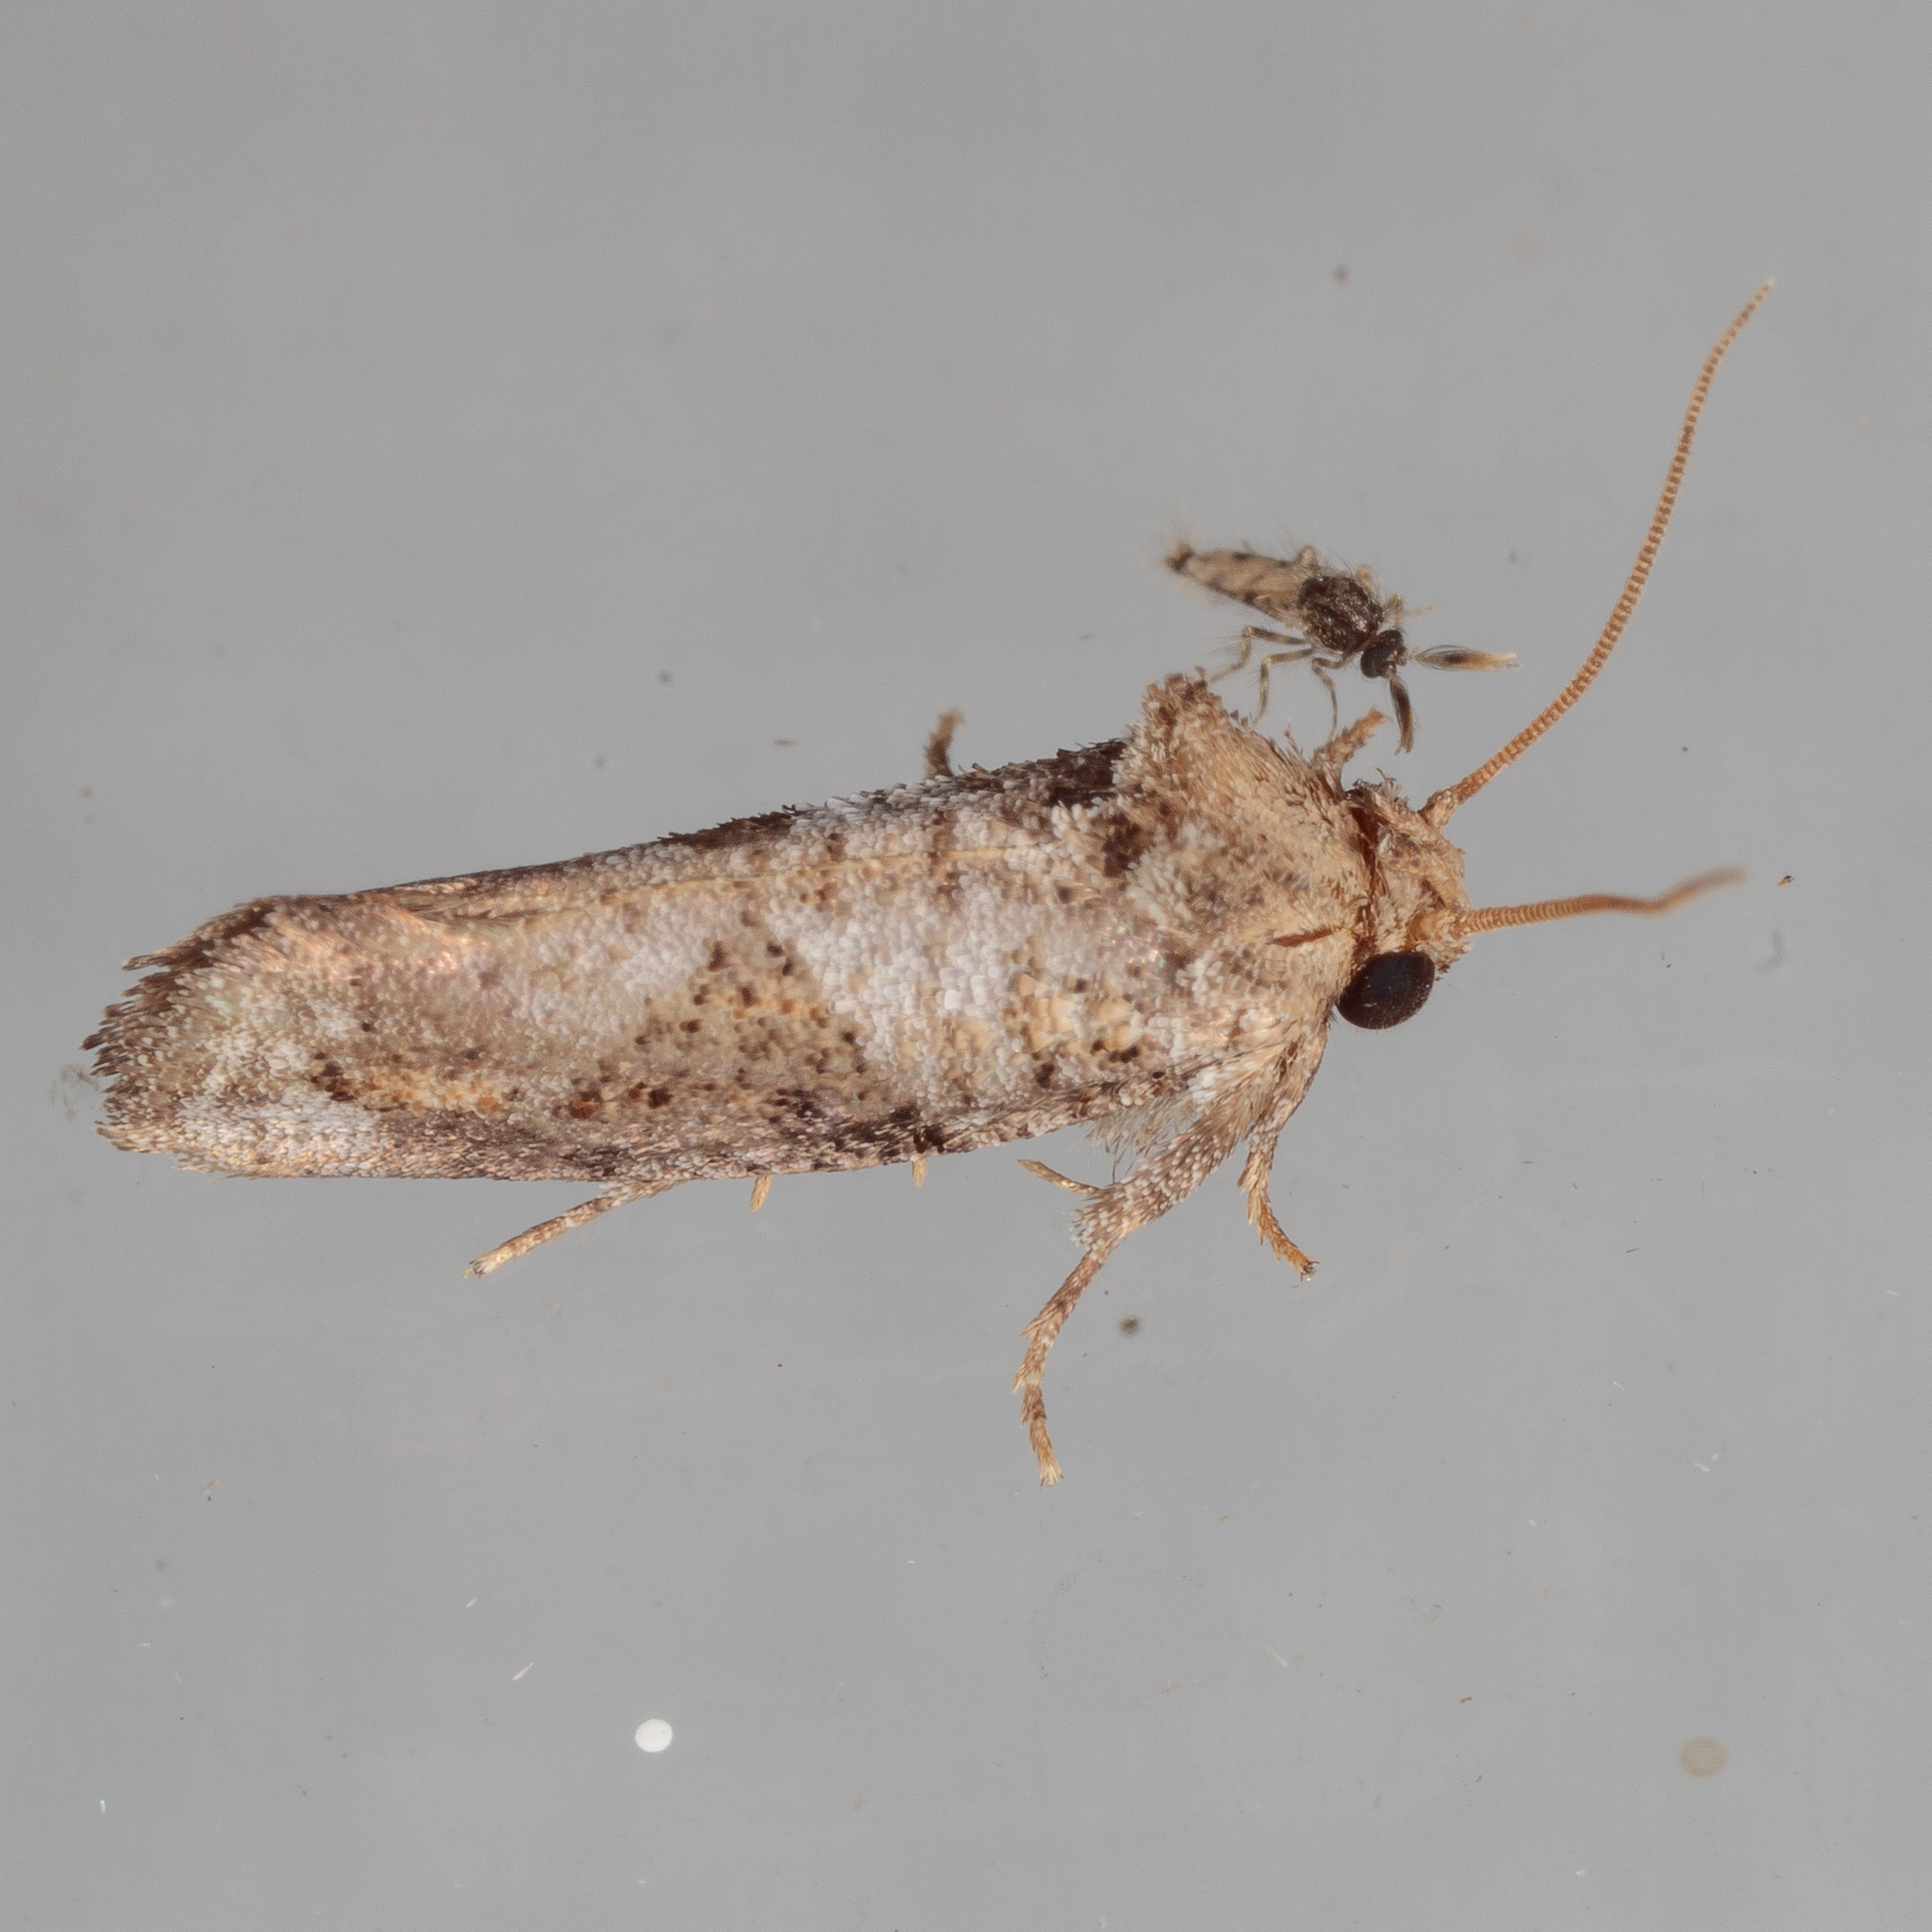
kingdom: Animalia
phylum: Arthropoda
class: Insecta
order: Lepidoptera
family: Tineidae
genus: Acrolophus
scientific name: Acrolophus piger
